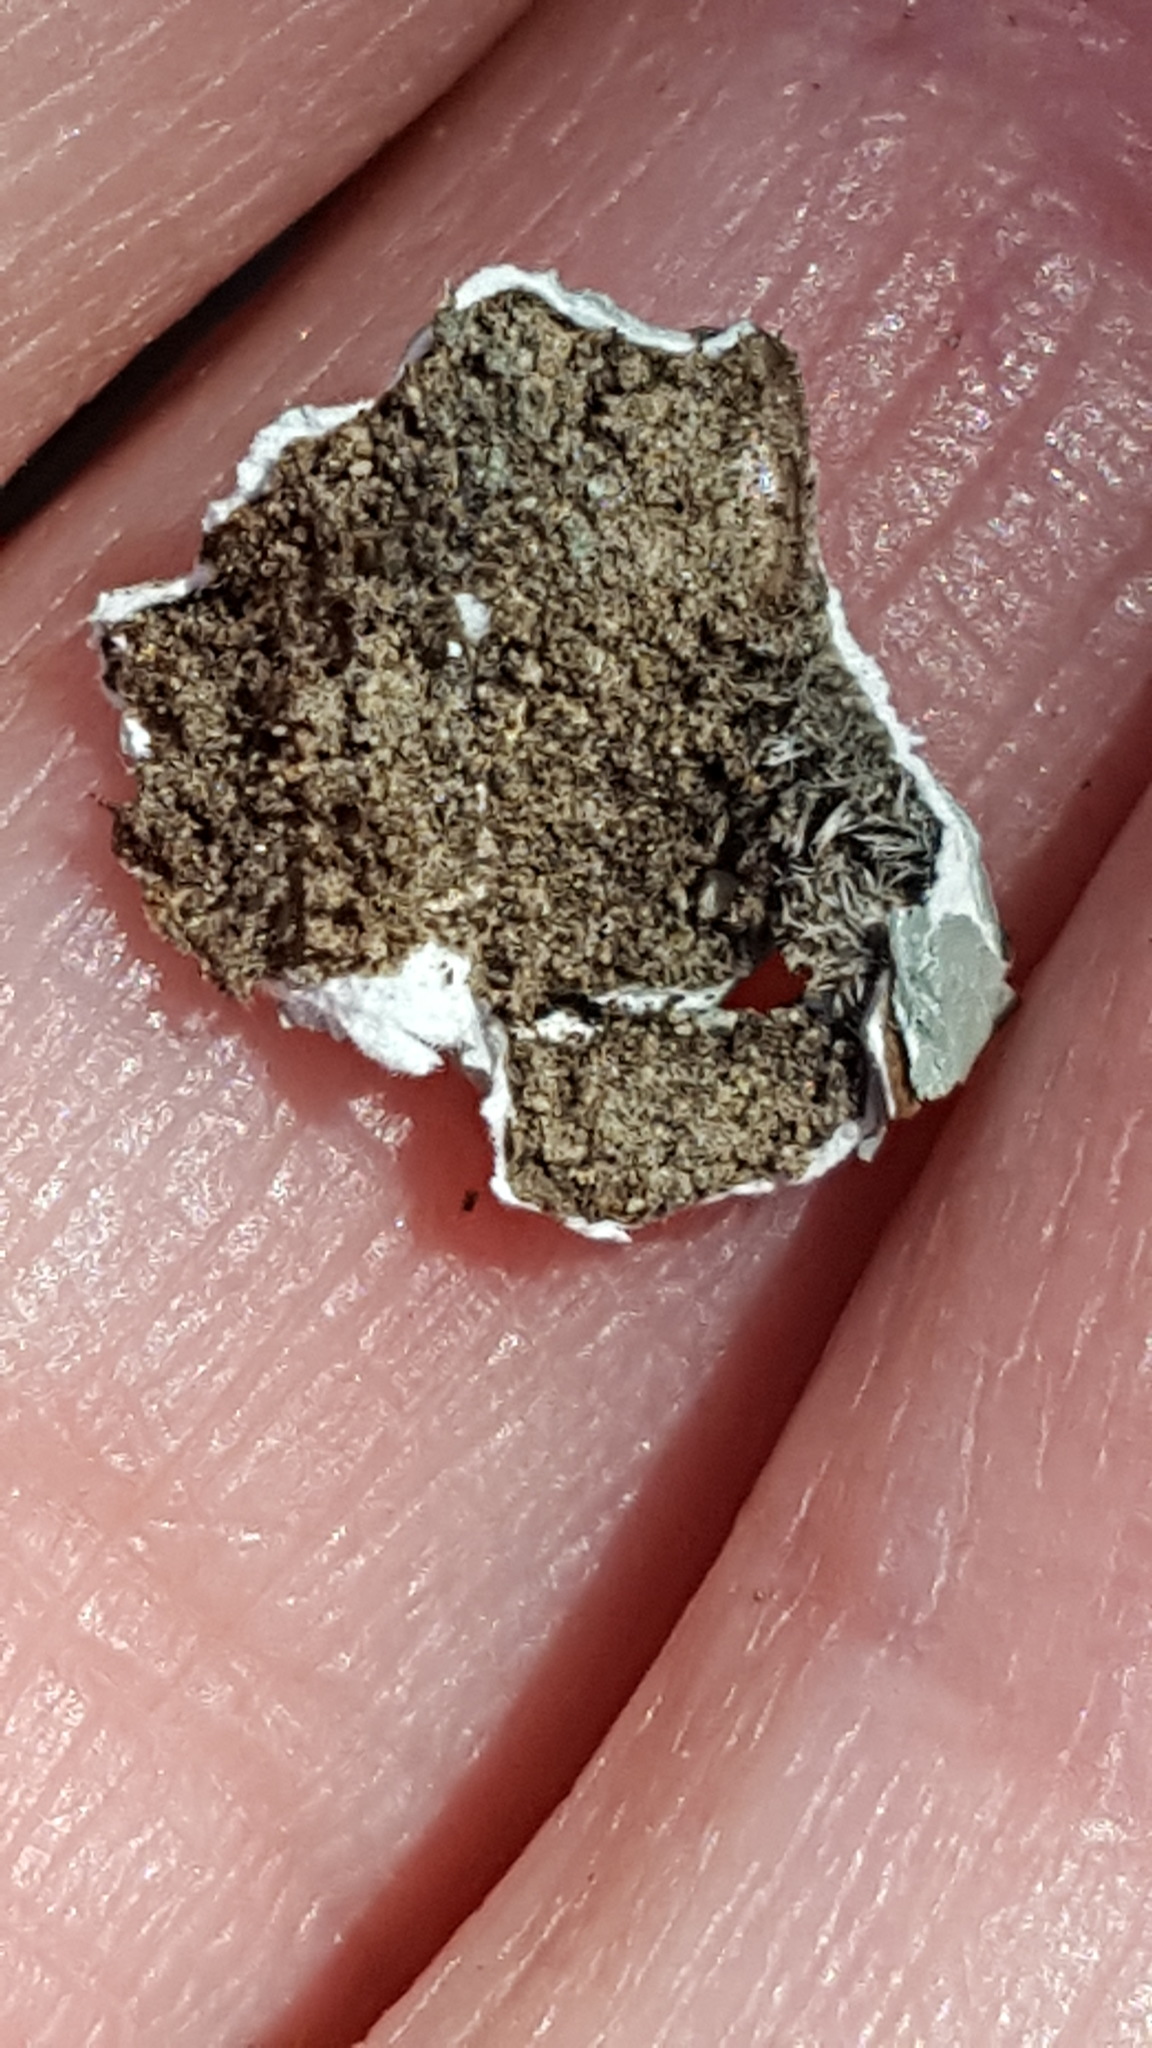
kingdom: Fungi
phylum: Ascomycota
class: Lecanoromycetes
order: Lecanorales
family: Parmeliaceae
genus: Punctelia
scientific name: Punctelia rudecta
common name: Rough speckled shield lichen
